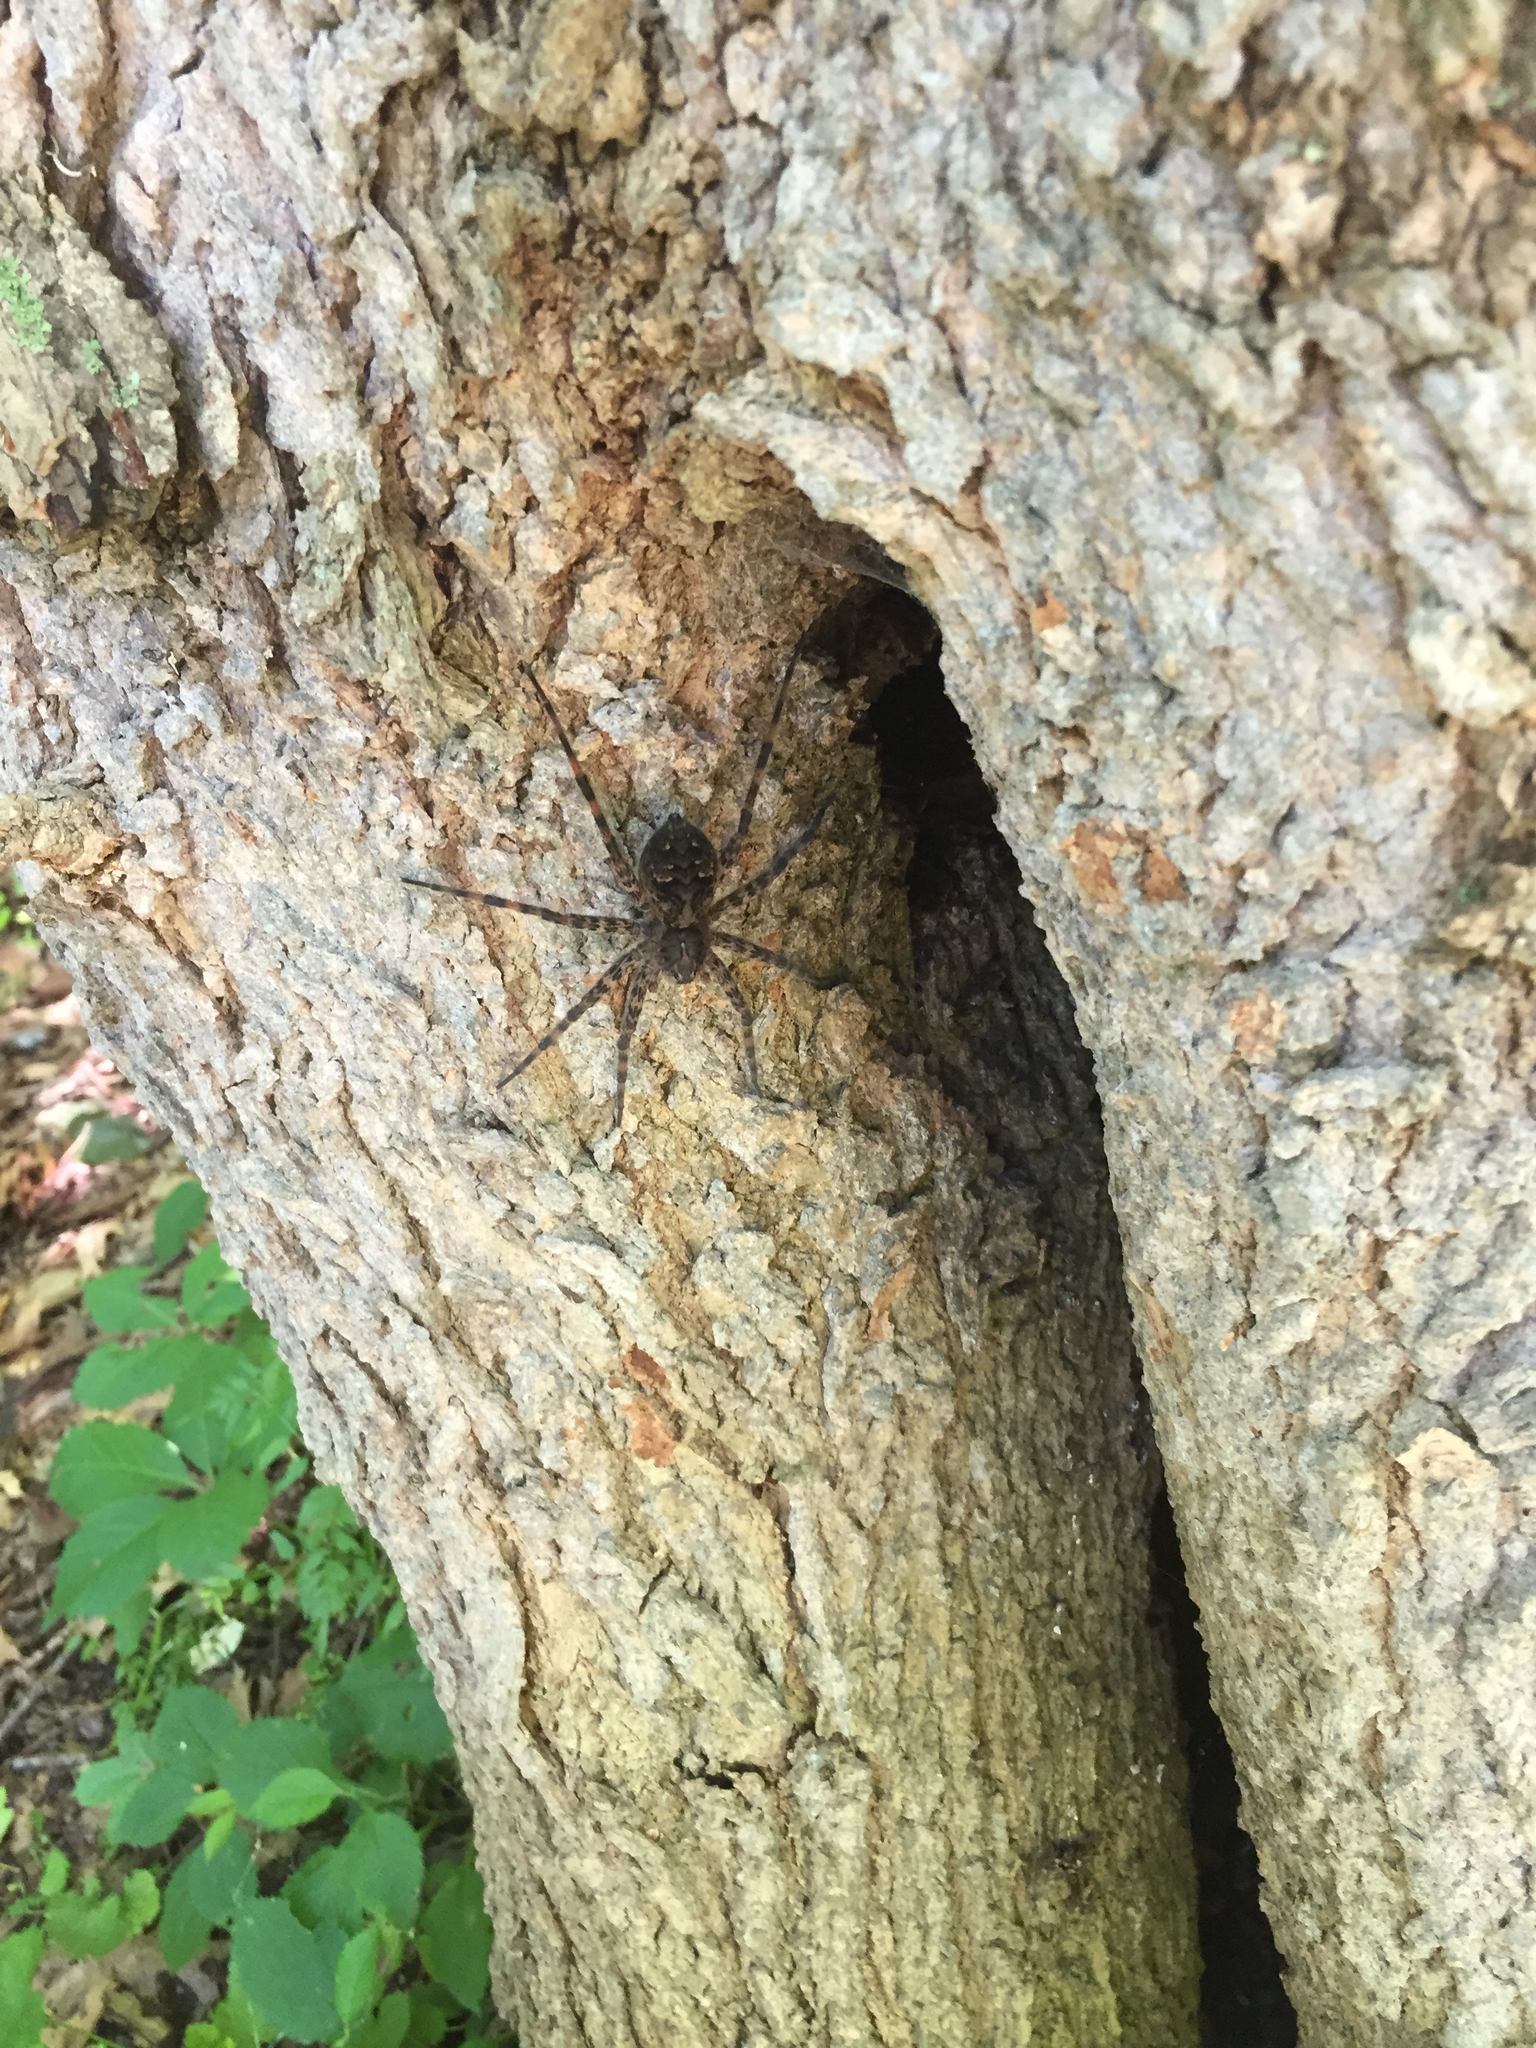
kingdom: Animalia
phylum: Arthropoda
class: Arachnida
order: Araneae
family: Pisauridae
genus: Dolomedes
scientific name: Dolomedes tenebrosus
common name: Dark fishing spider
